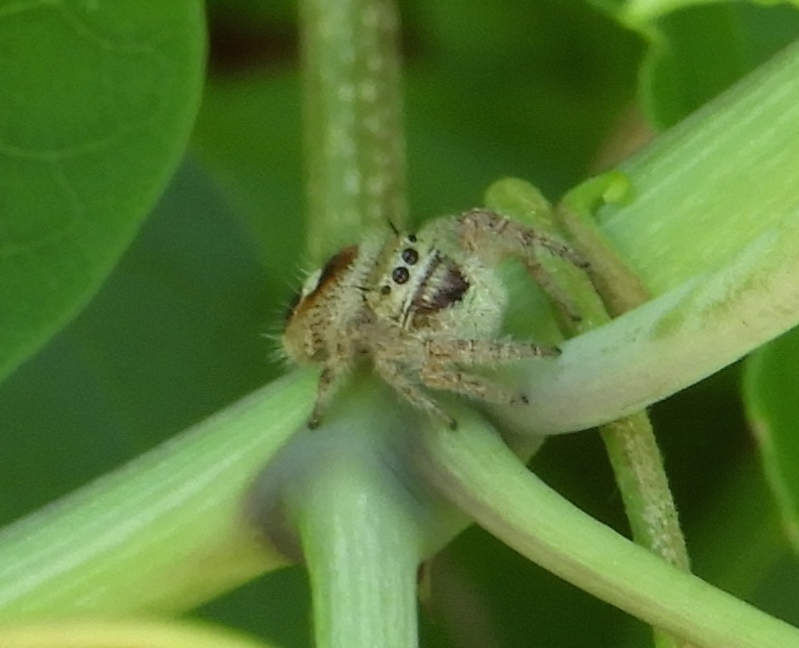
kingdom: Animalia
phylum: Arthropoda
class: Arachnida
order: Araneae
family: Salticidae
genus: Phidippus
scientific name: Phidippus pacosauritus
